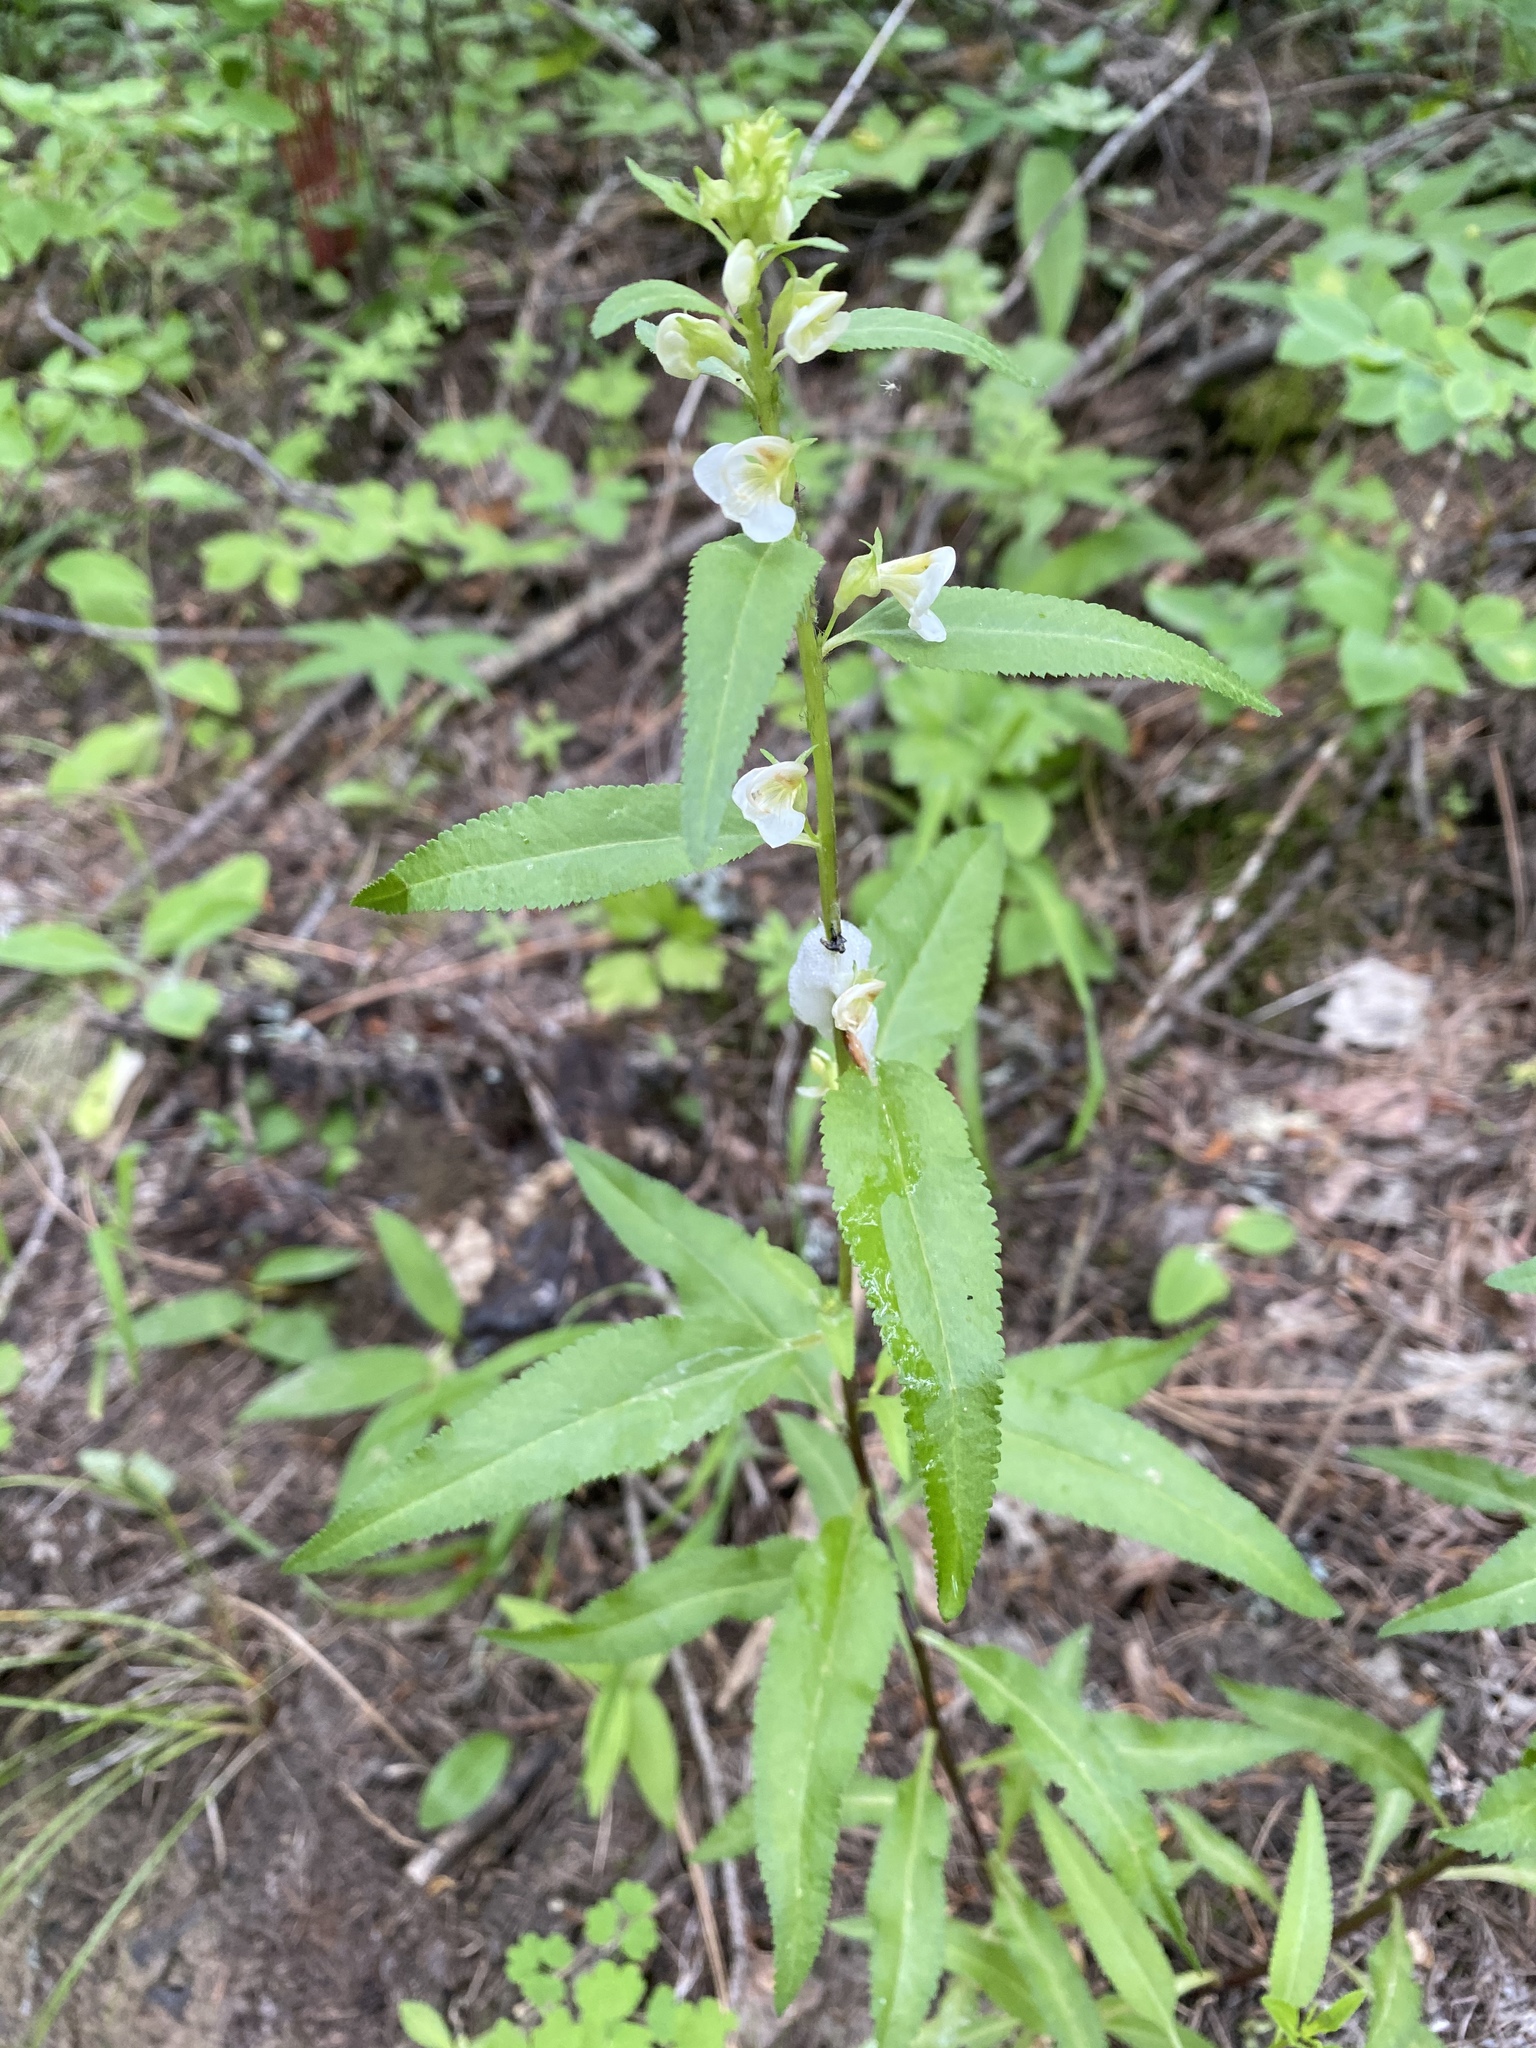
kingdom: Plantae
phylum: Tracheophyta
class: Magnoliopsida
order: Lamiales
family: Orobanchaceae
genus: Pedicularis
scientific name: Pedicularis racemosa
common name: Leafy lousewort
